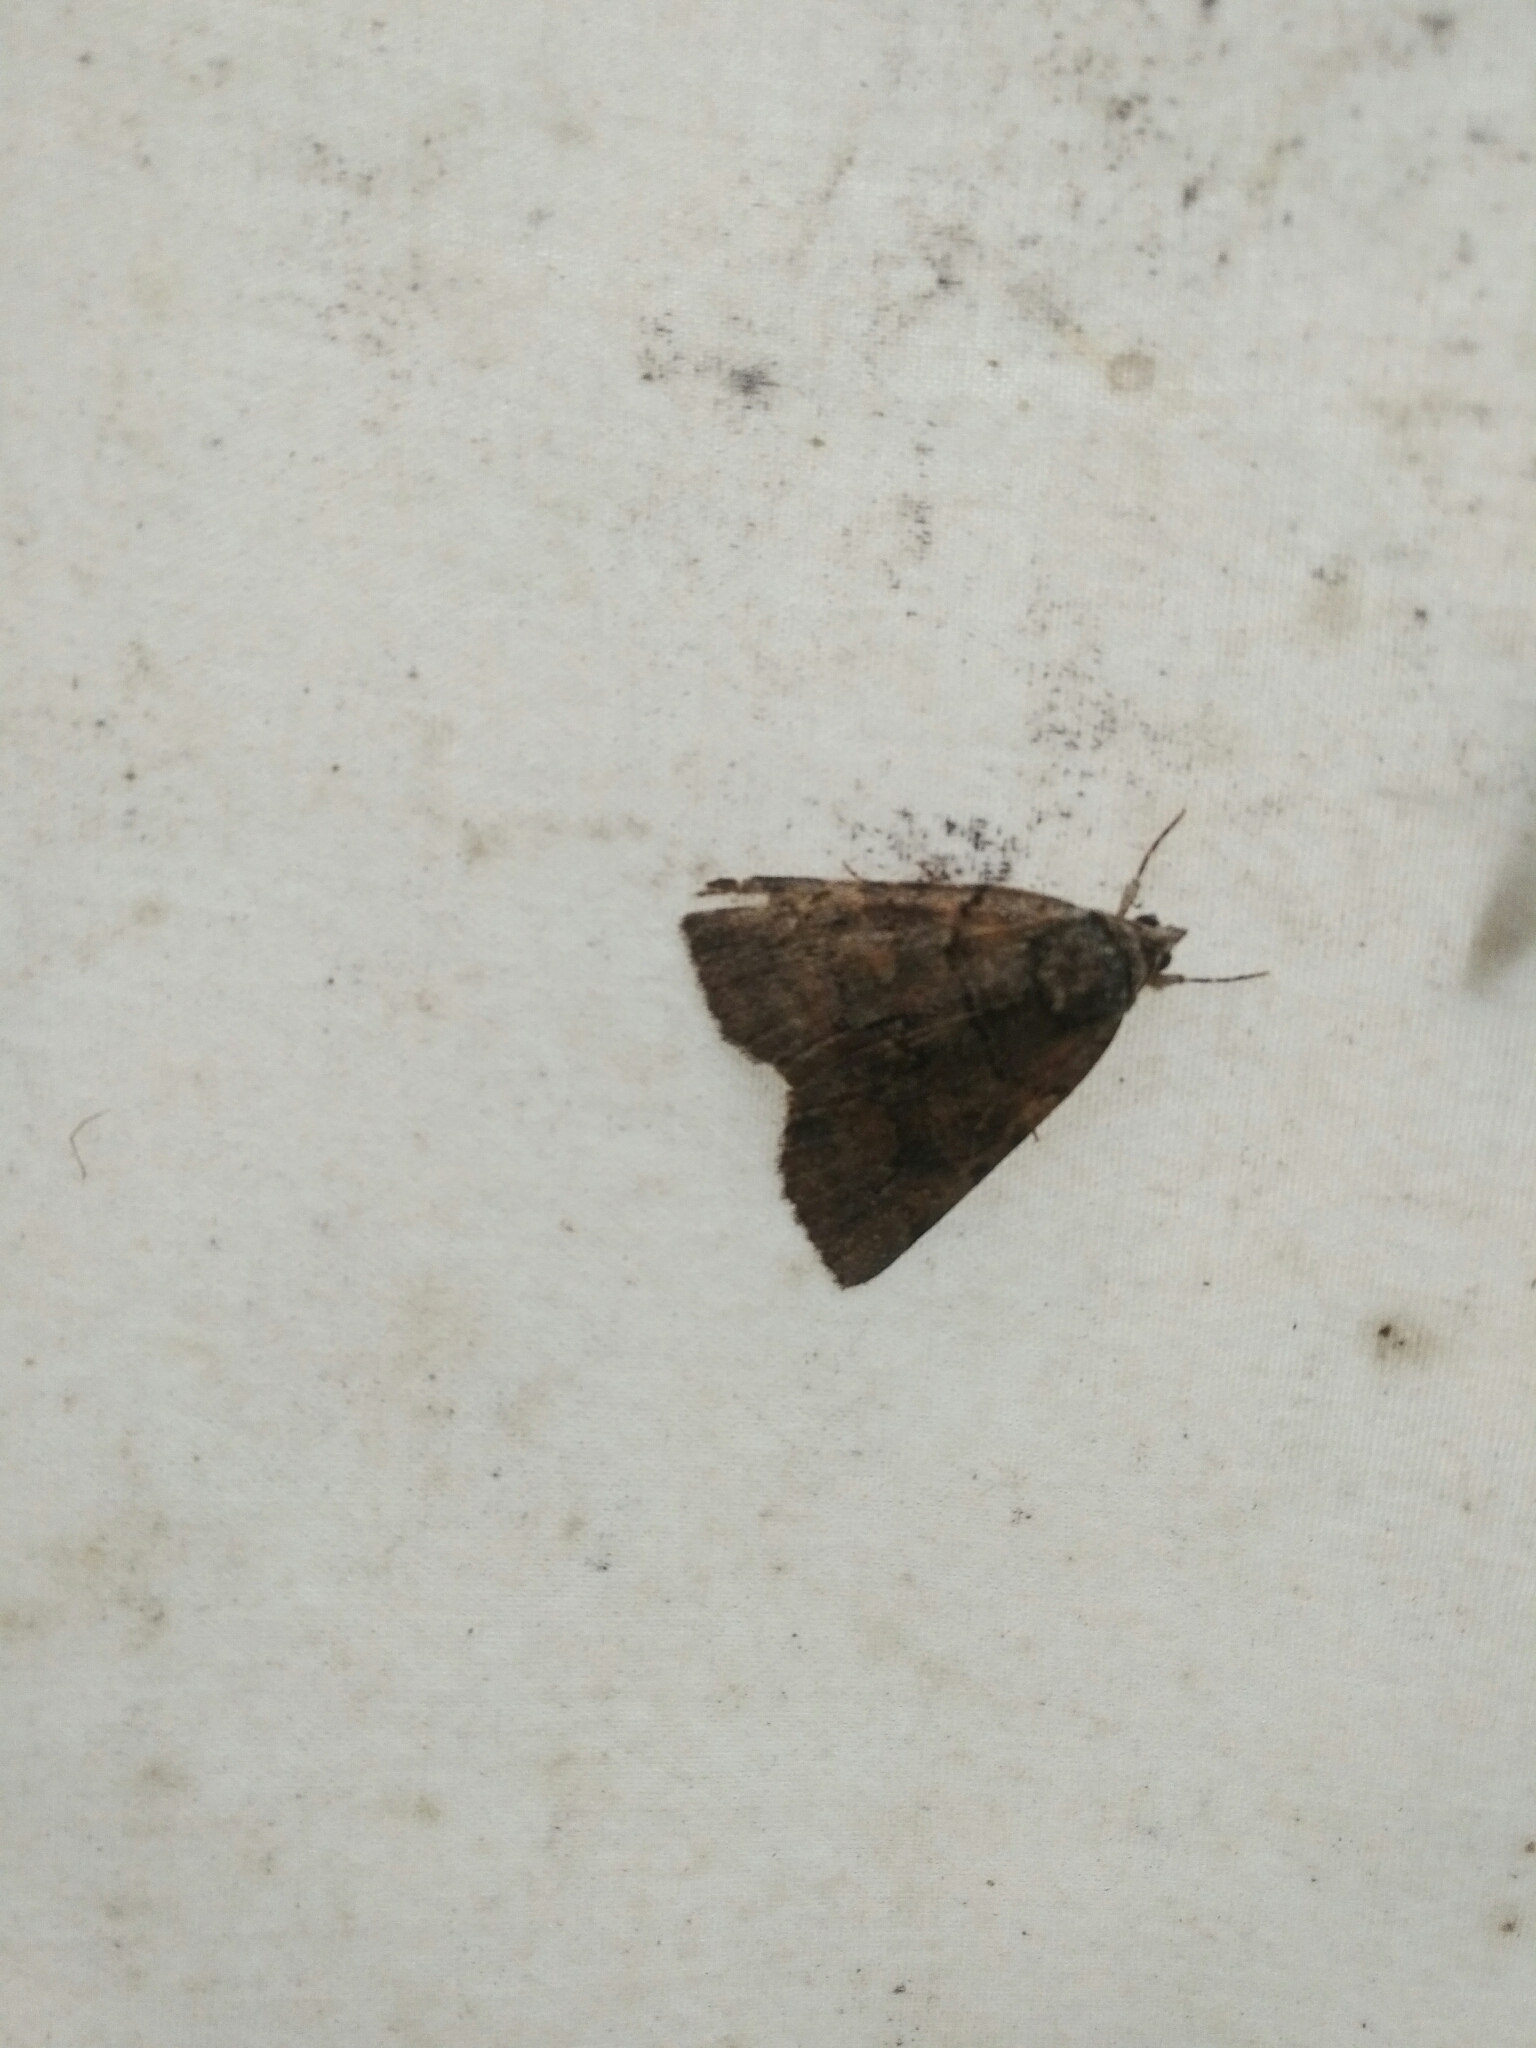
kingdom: Animalia
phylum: Arthropoda
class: Insecta
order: Lepidoptera
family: Erebidae
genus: Catocala
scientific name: Catocala alabamae
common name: Alabama underwing
